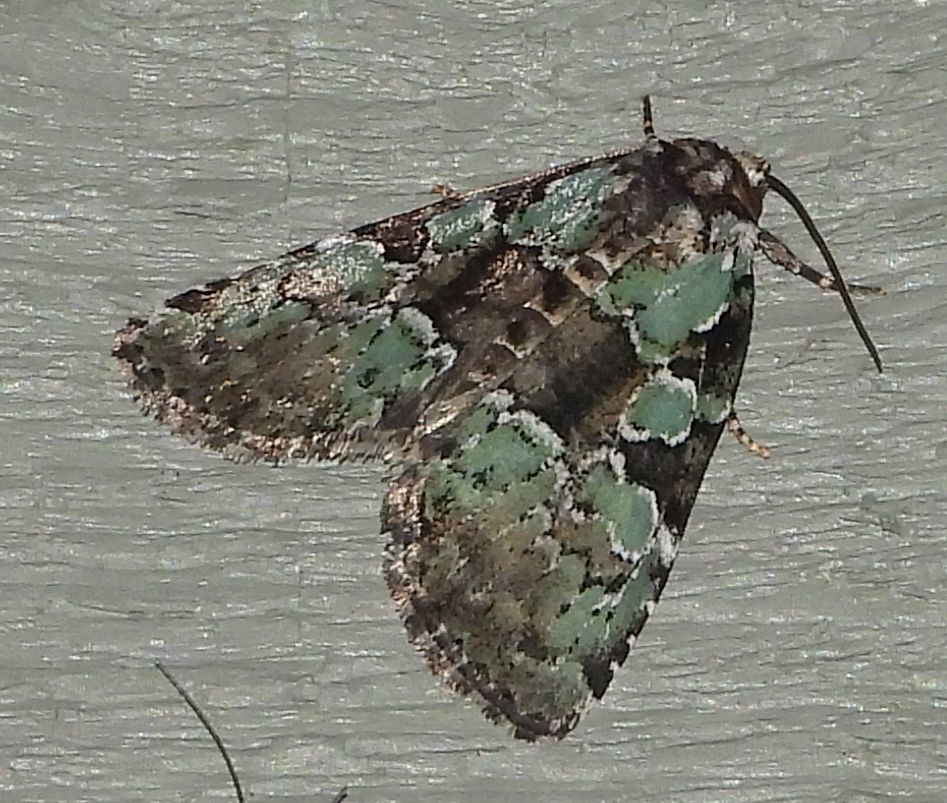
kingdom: Animalia
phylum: Arthropoda
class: Insecta
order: Lepidoptera
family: Noctuidae
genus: Leuconycta
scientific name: Leuconycta lepidula
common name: Marbled-green leuconycta moth
